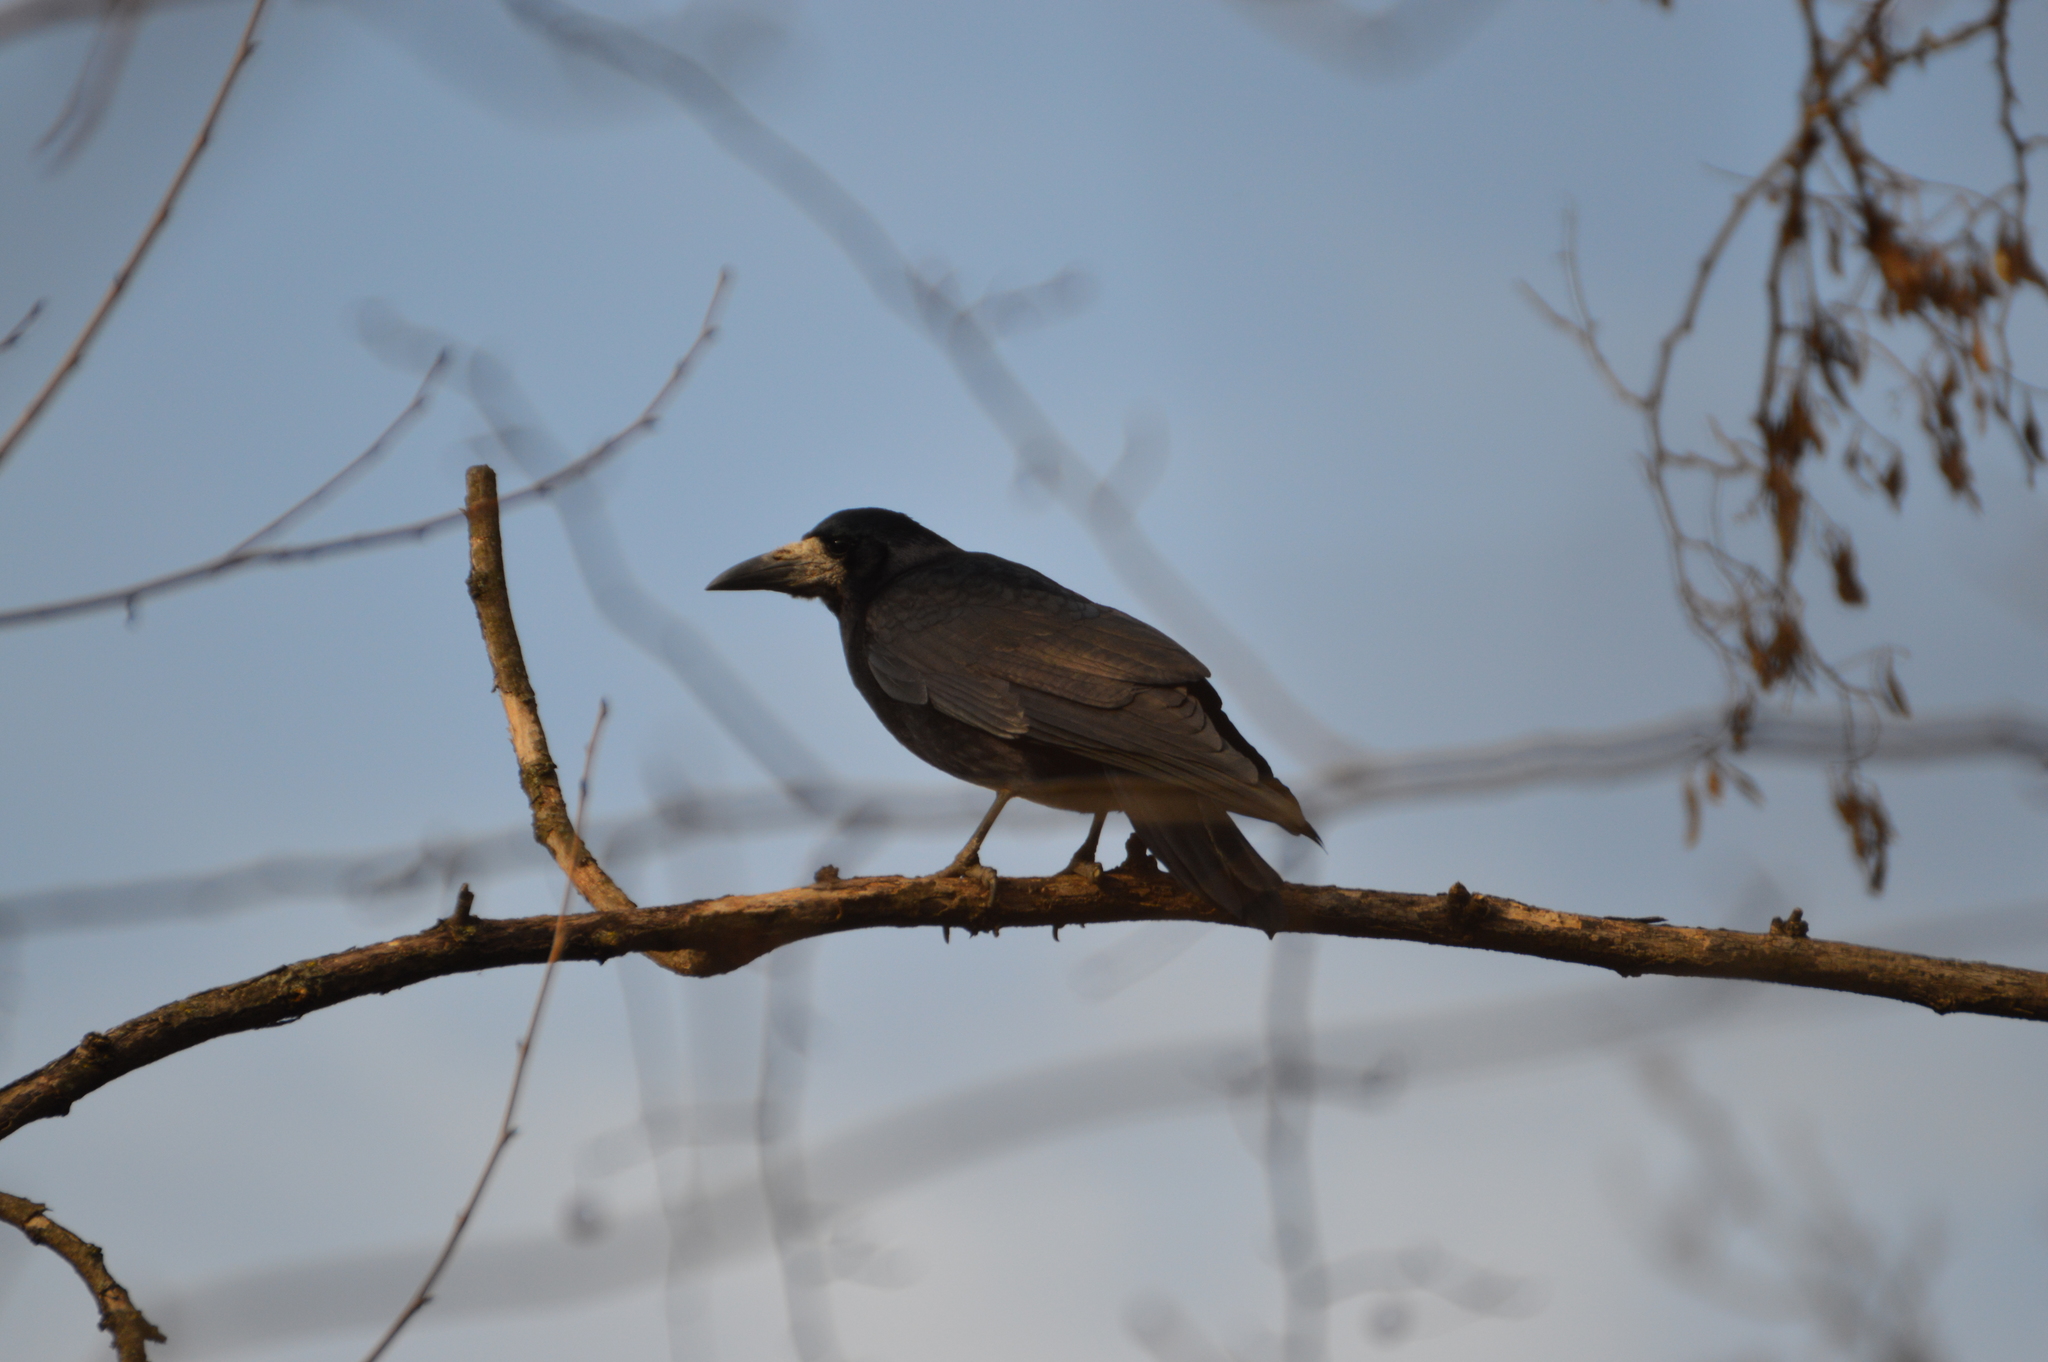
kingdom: Animalia
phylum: Chordata
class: Aves
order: Passeriformes
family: Corvidae
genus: Corvus
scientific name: Corvus frugilegus
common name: Rook
